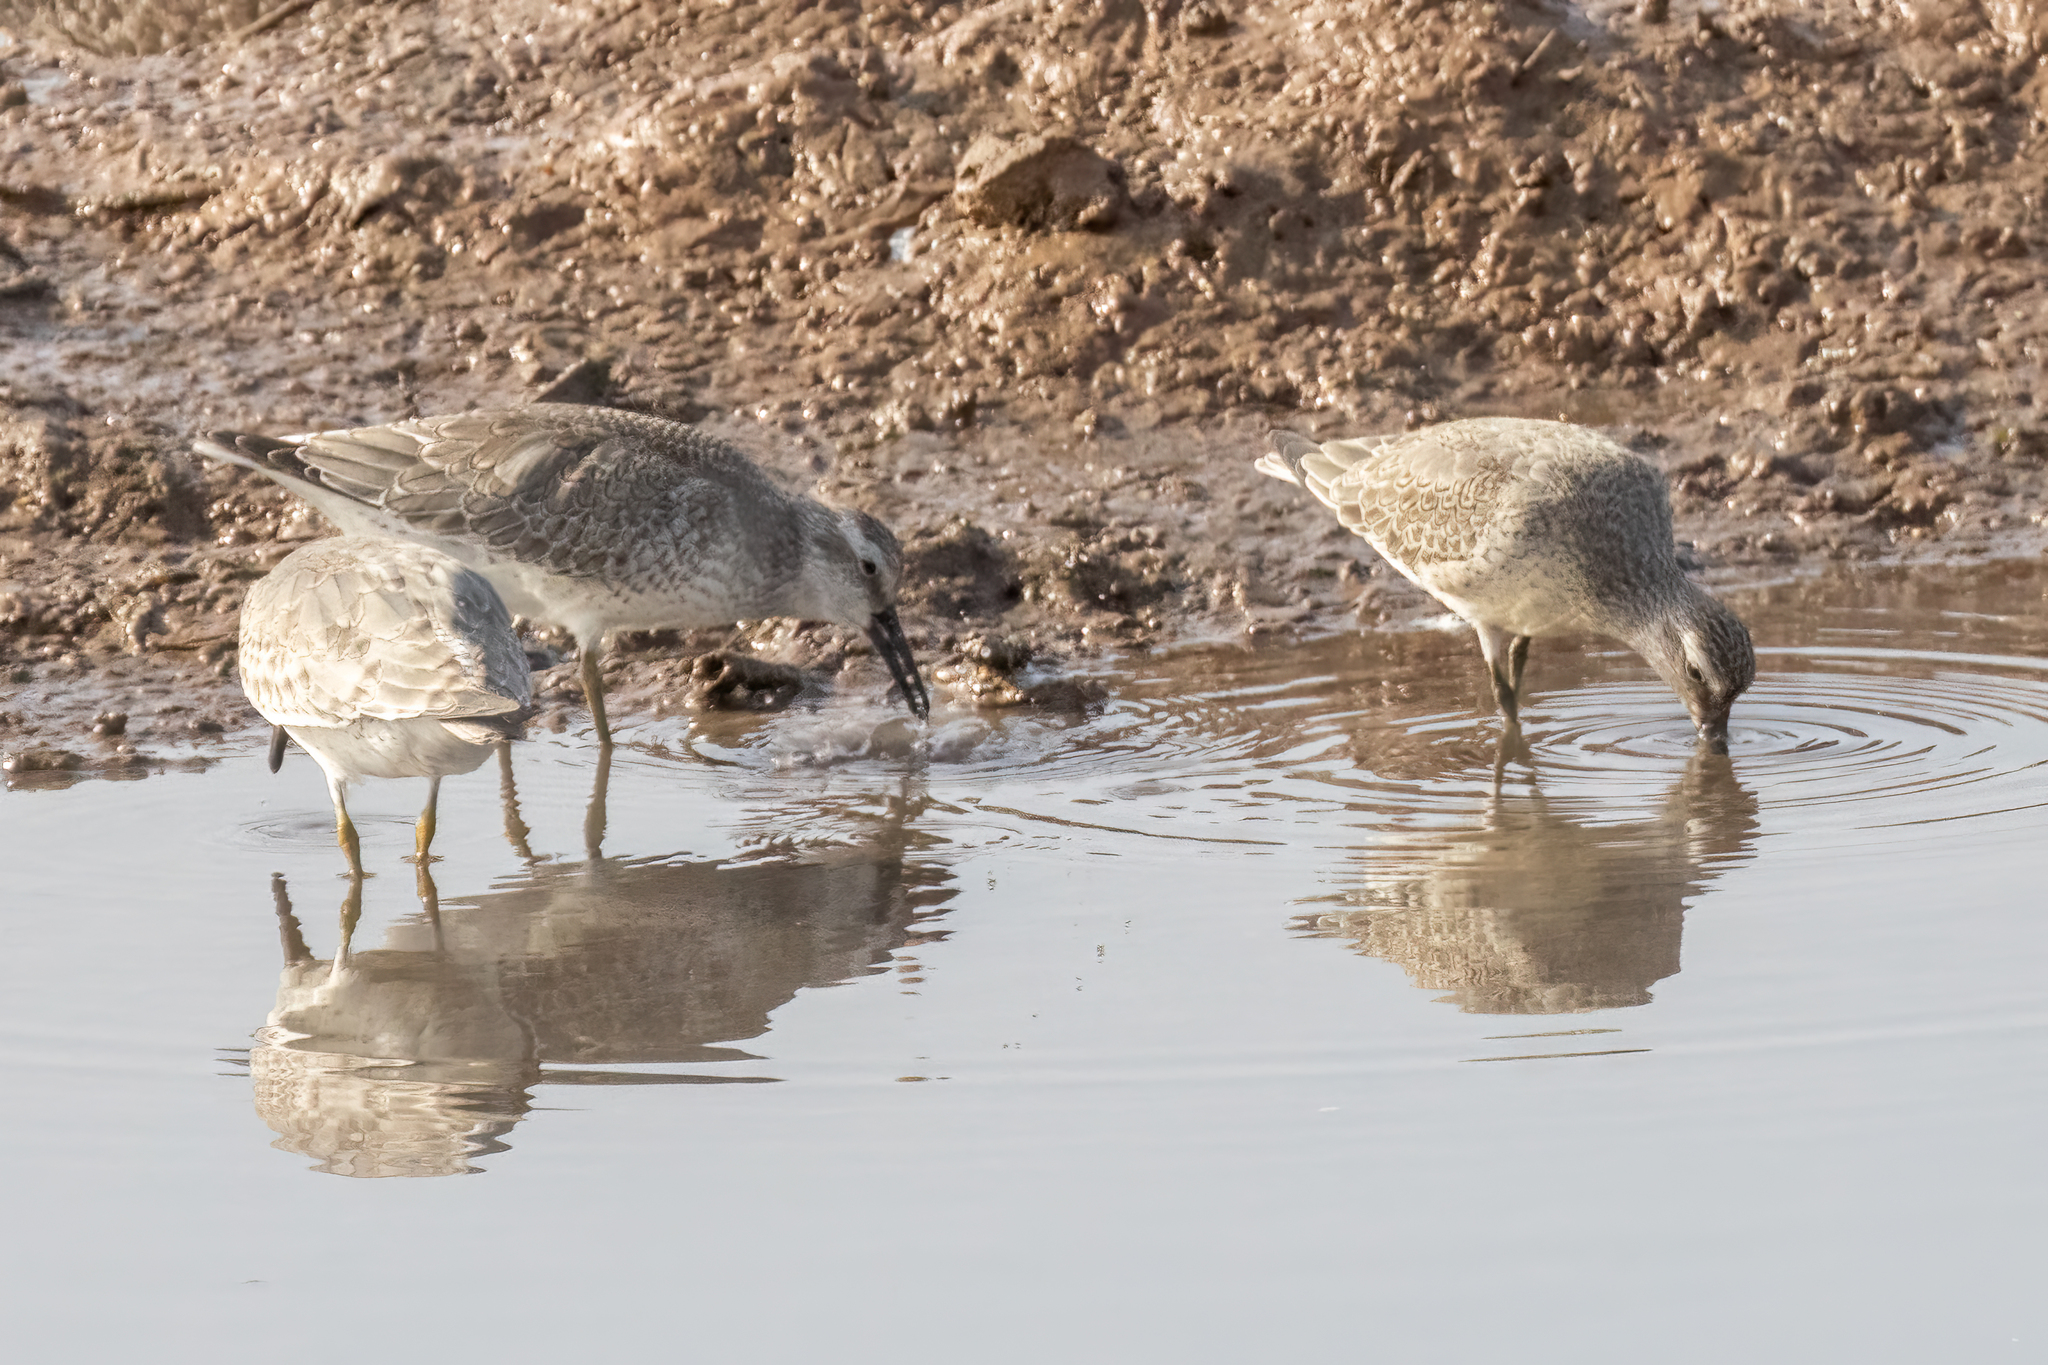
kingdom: Animalia
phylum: Chordata
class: Aves
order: Charadriiformes
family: Scolopacidae
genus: Calidris
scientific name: Calidris canutus
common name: Red knot
